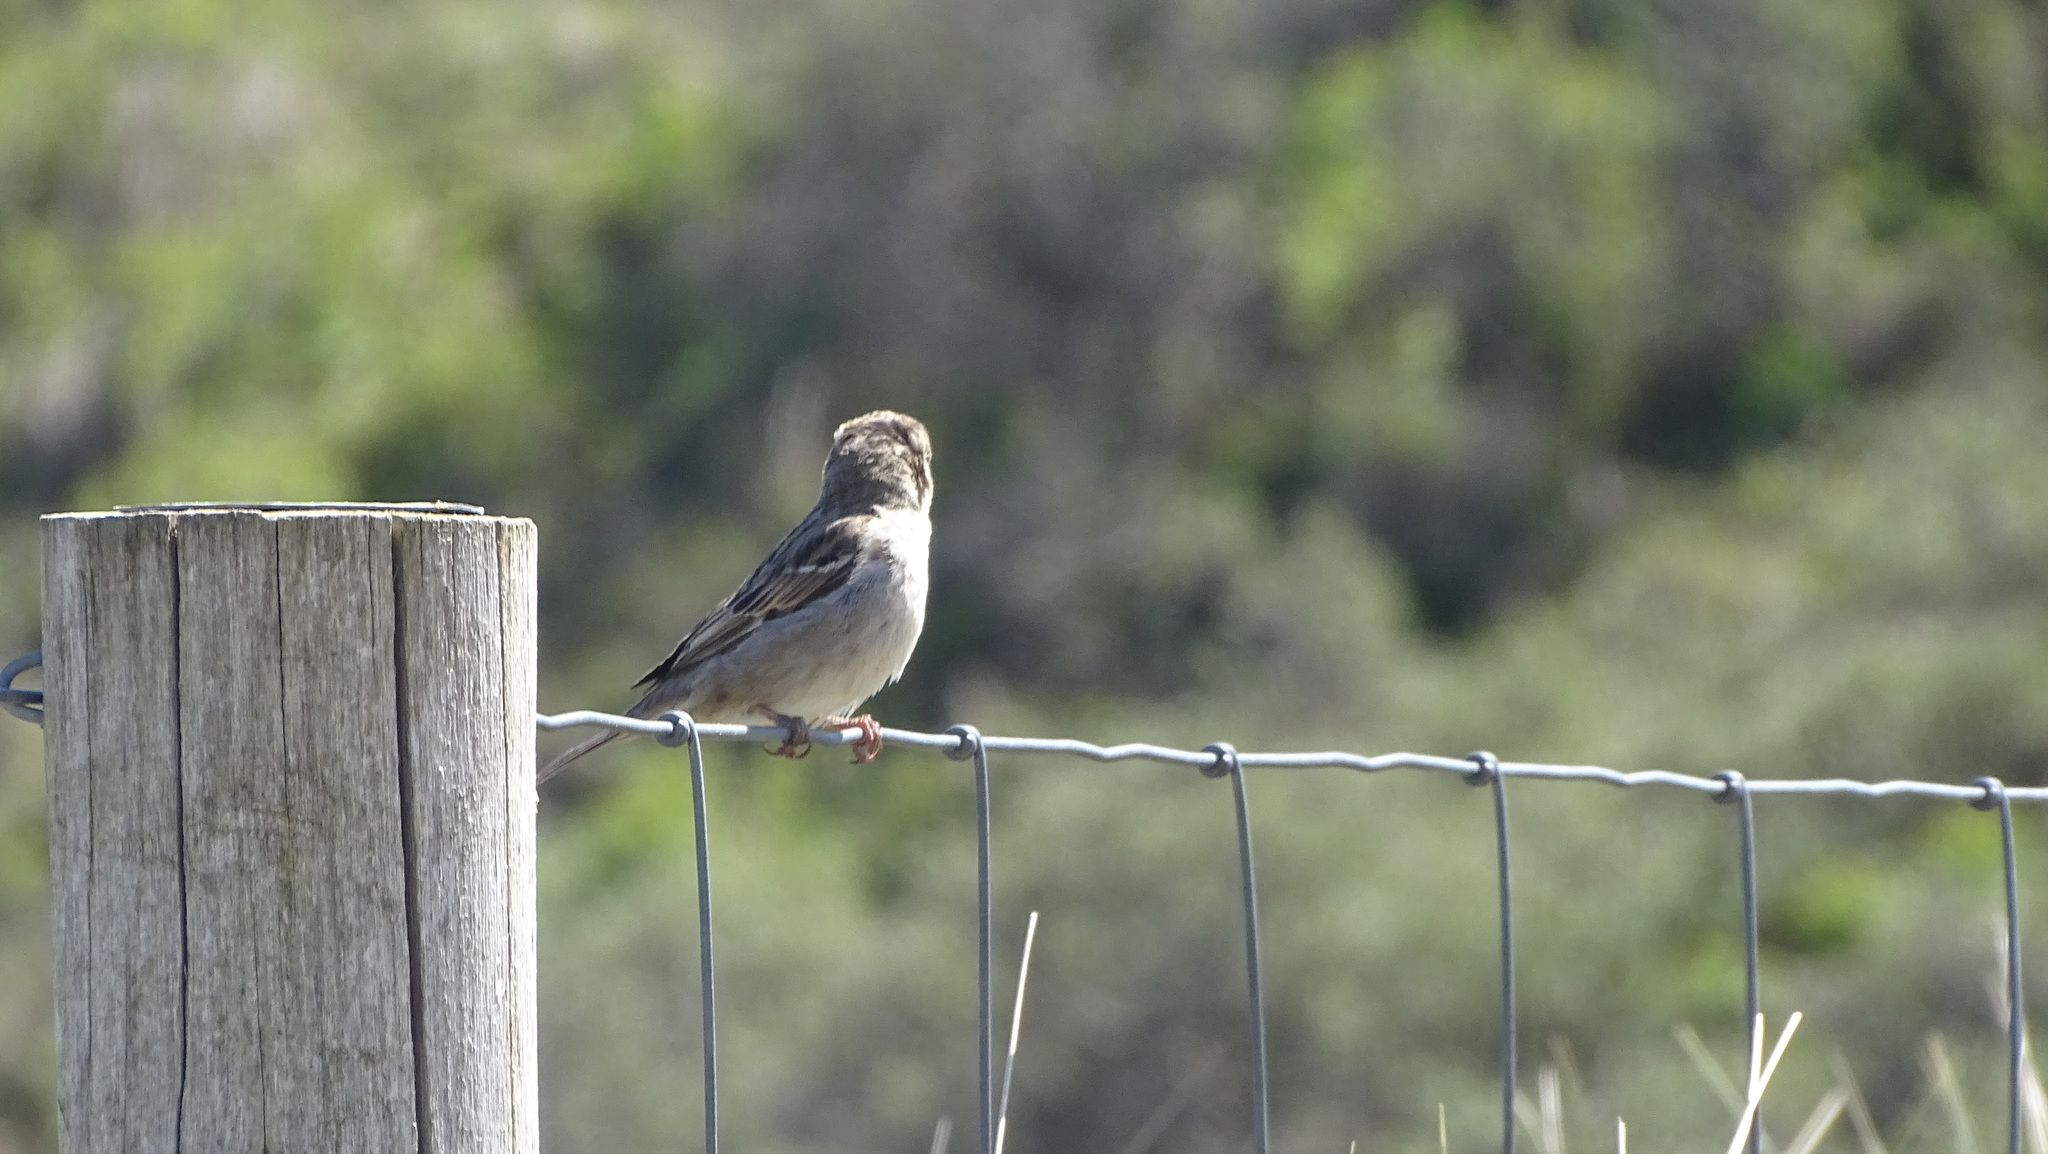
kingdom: Animalia
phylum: Chordata
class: Aves
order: Passeriformes
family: Passeridae
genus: Passer
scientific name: Passer domesticus
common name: House sparrow
